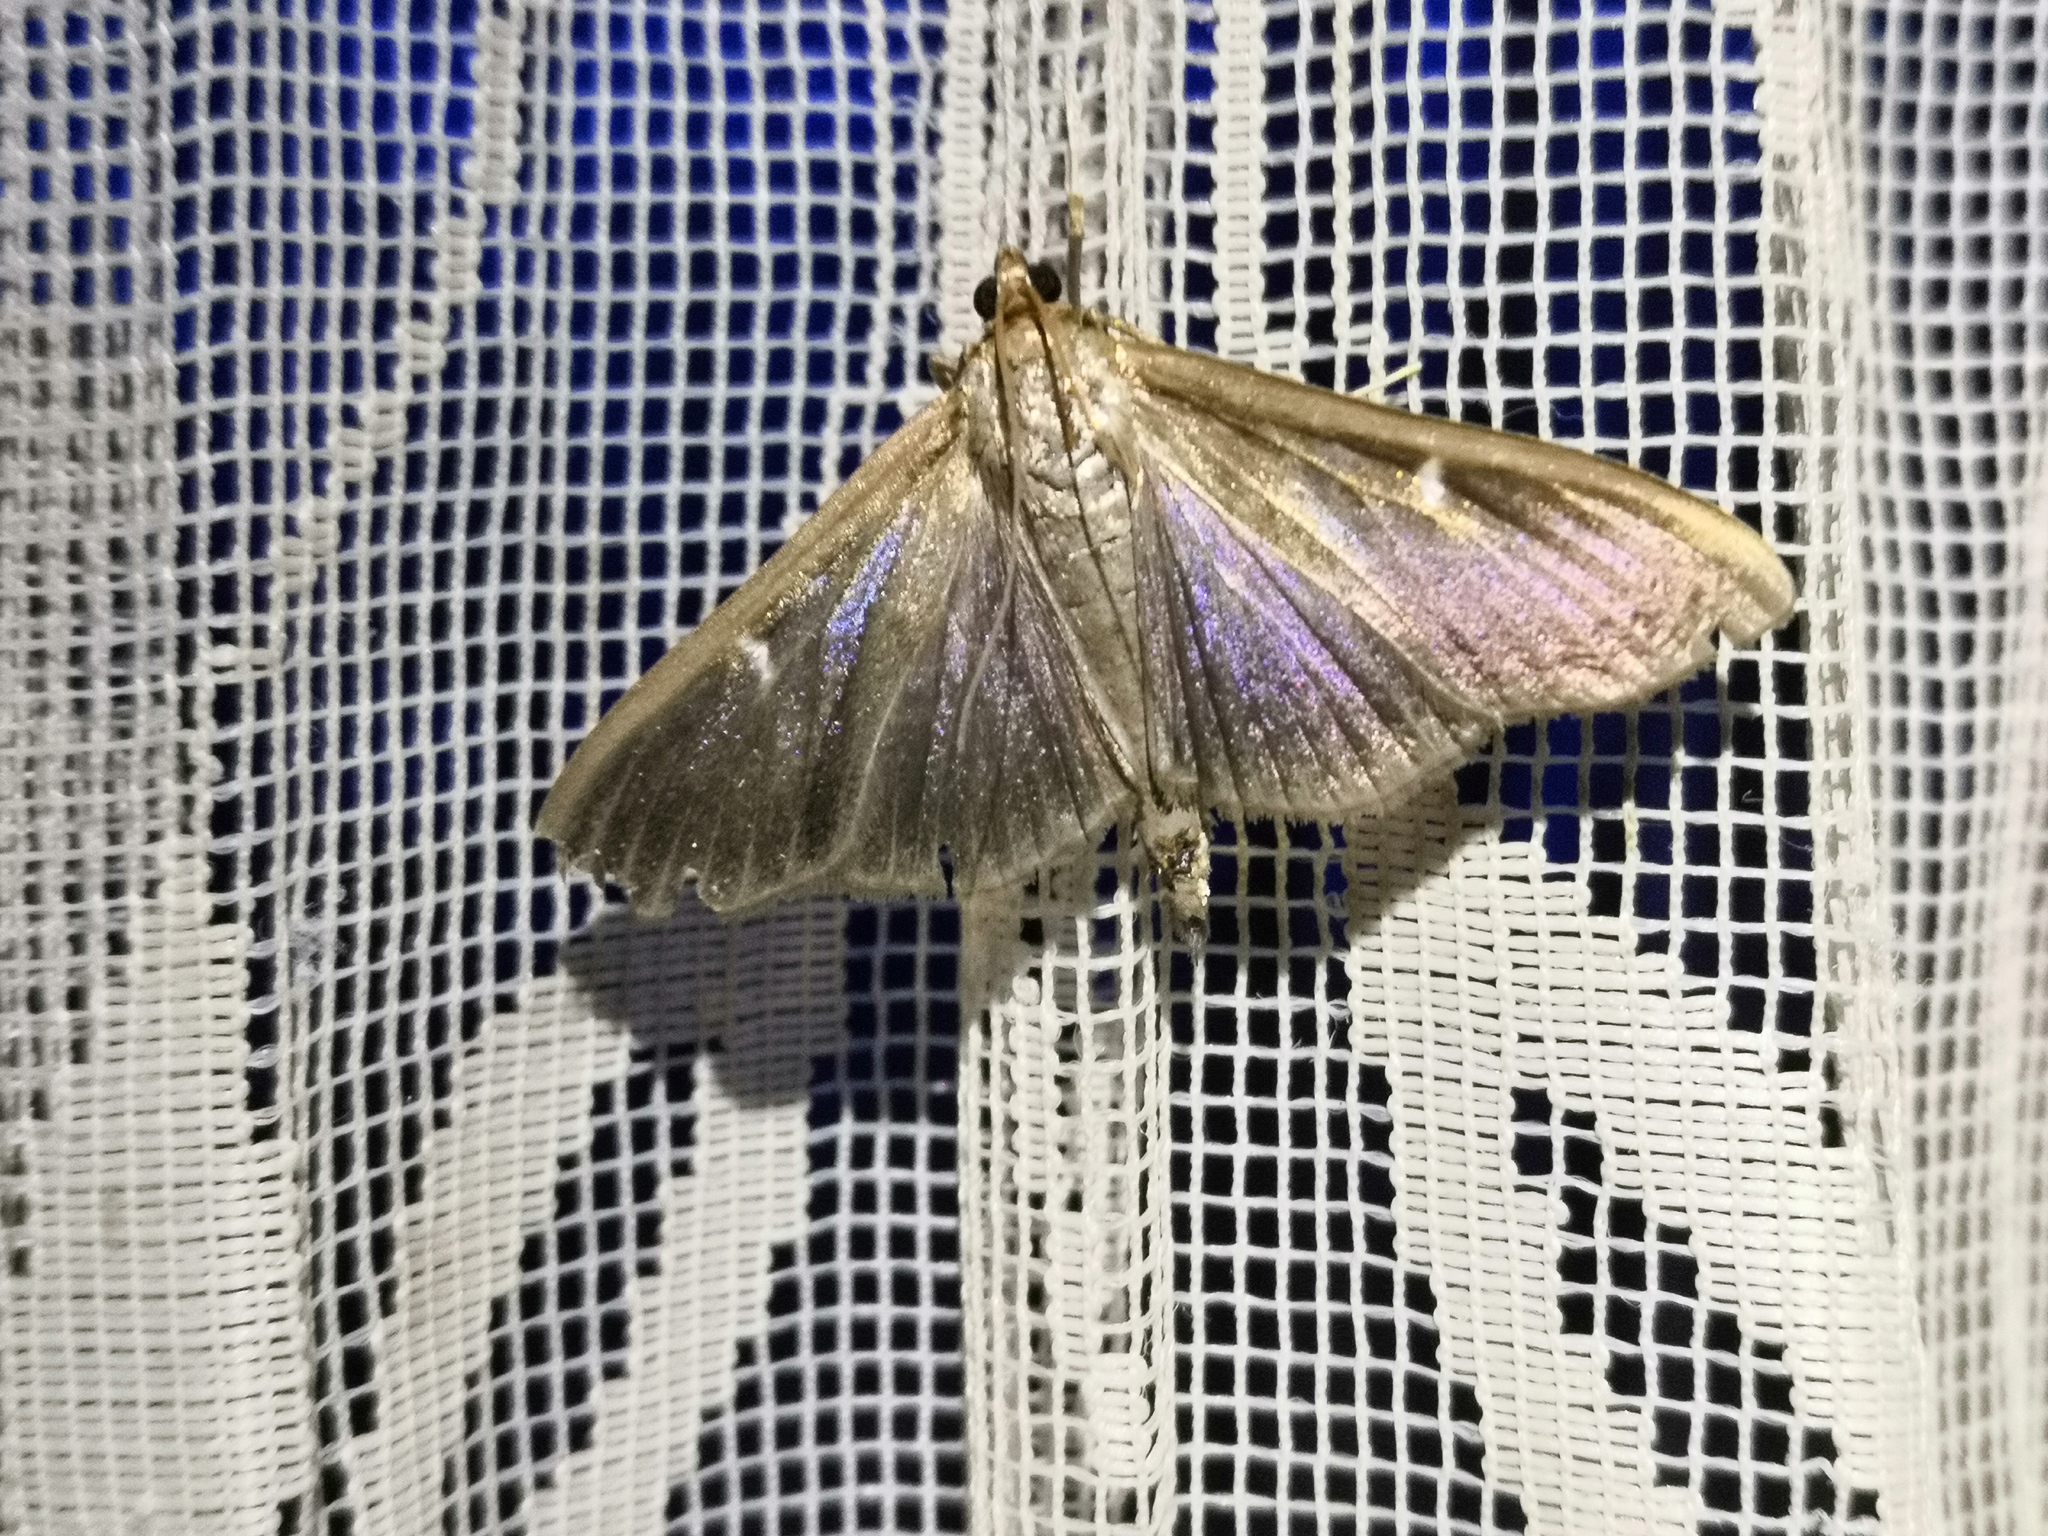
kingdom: Animalia
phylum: Arthropoda
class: Insecta
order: Lepidoptera
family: Crambidae
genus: Cydalima
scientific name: Cydalima perspectalis
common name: Box tree moth
